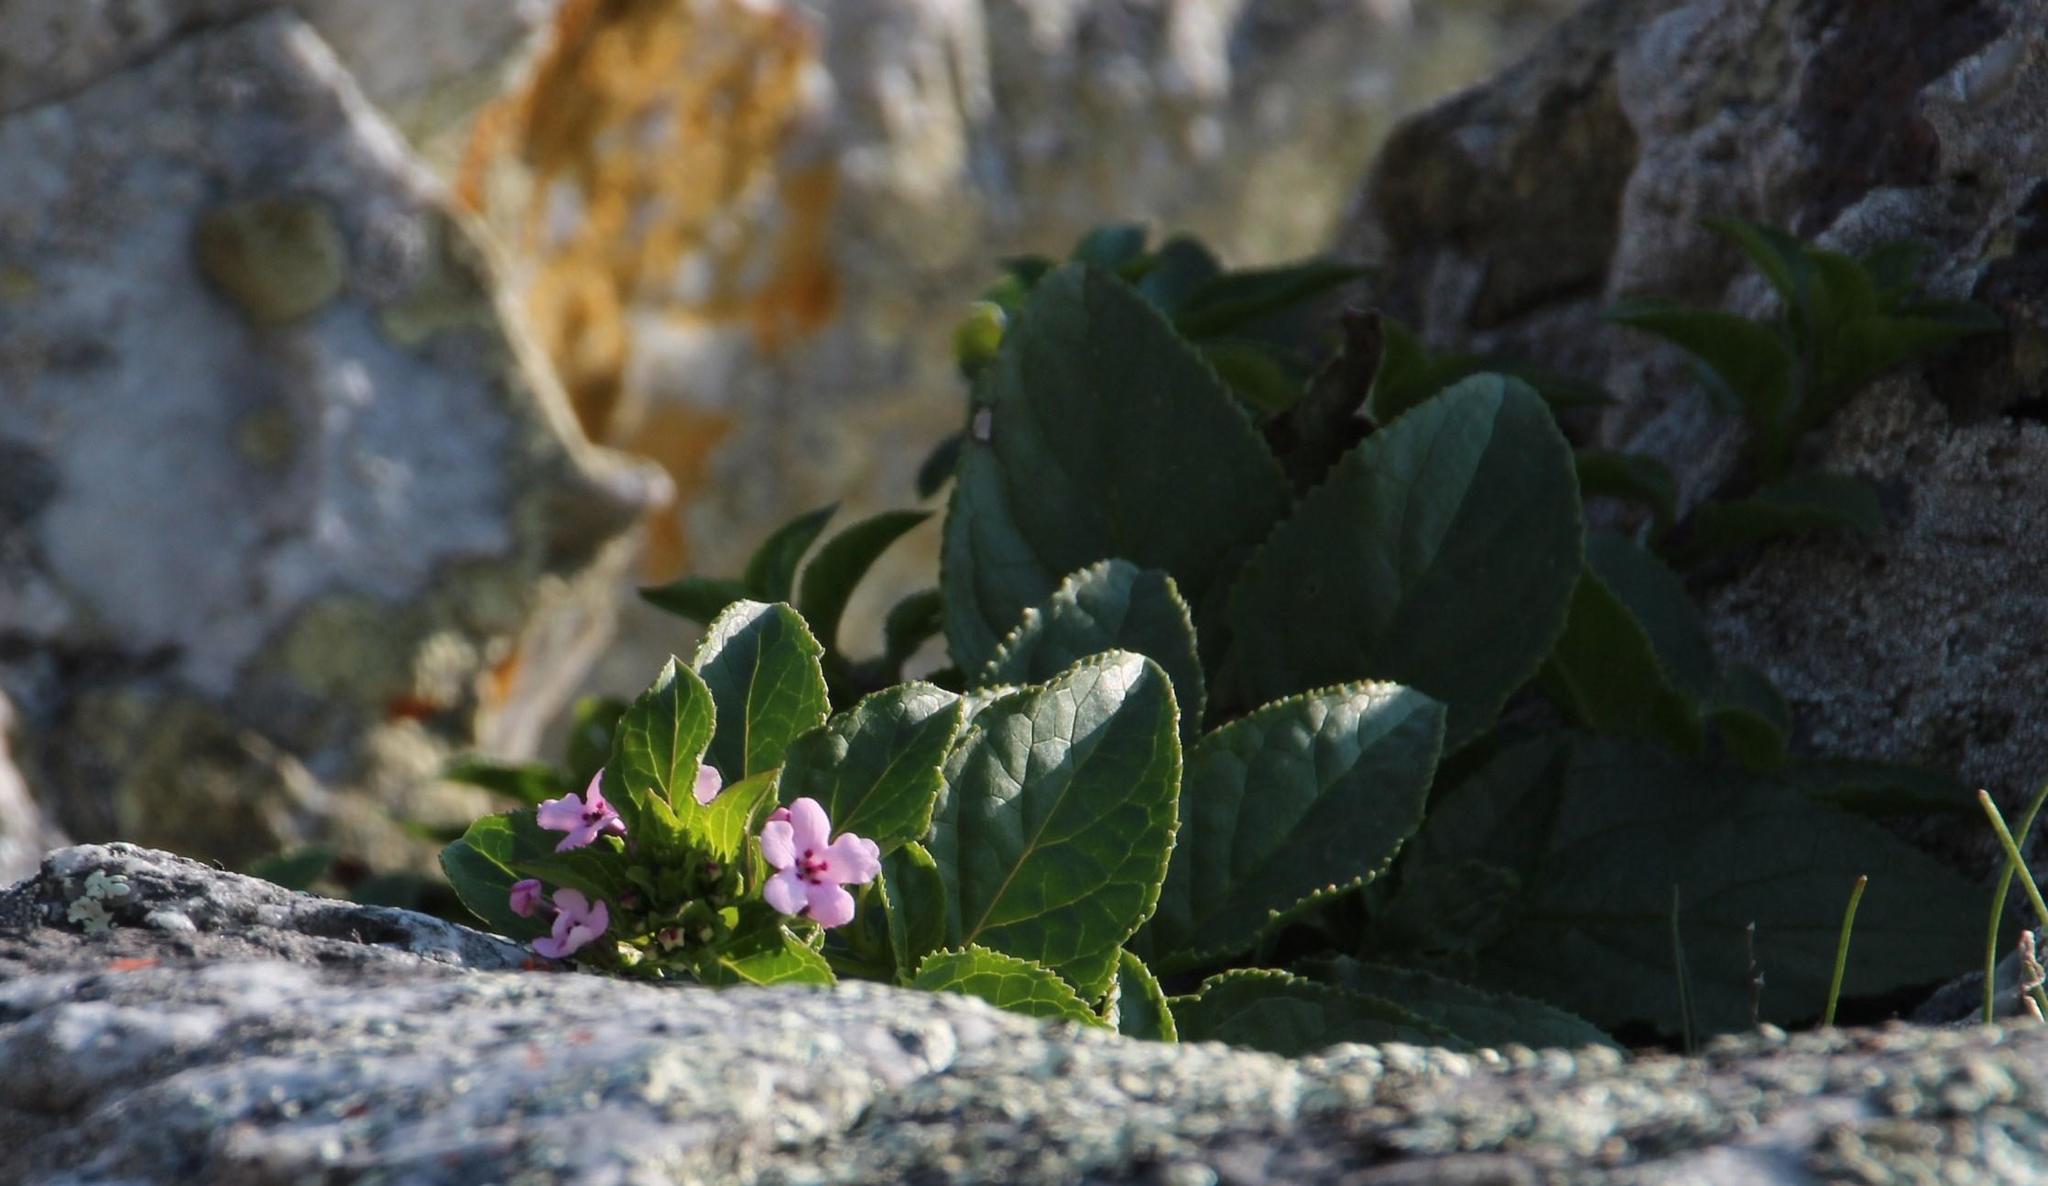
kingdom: Plantae
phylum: Tracheophyta
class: Magnoliopsida
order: Lamiales
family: Scrophulariaceae
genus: Teedia
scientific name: Teedia lucida
